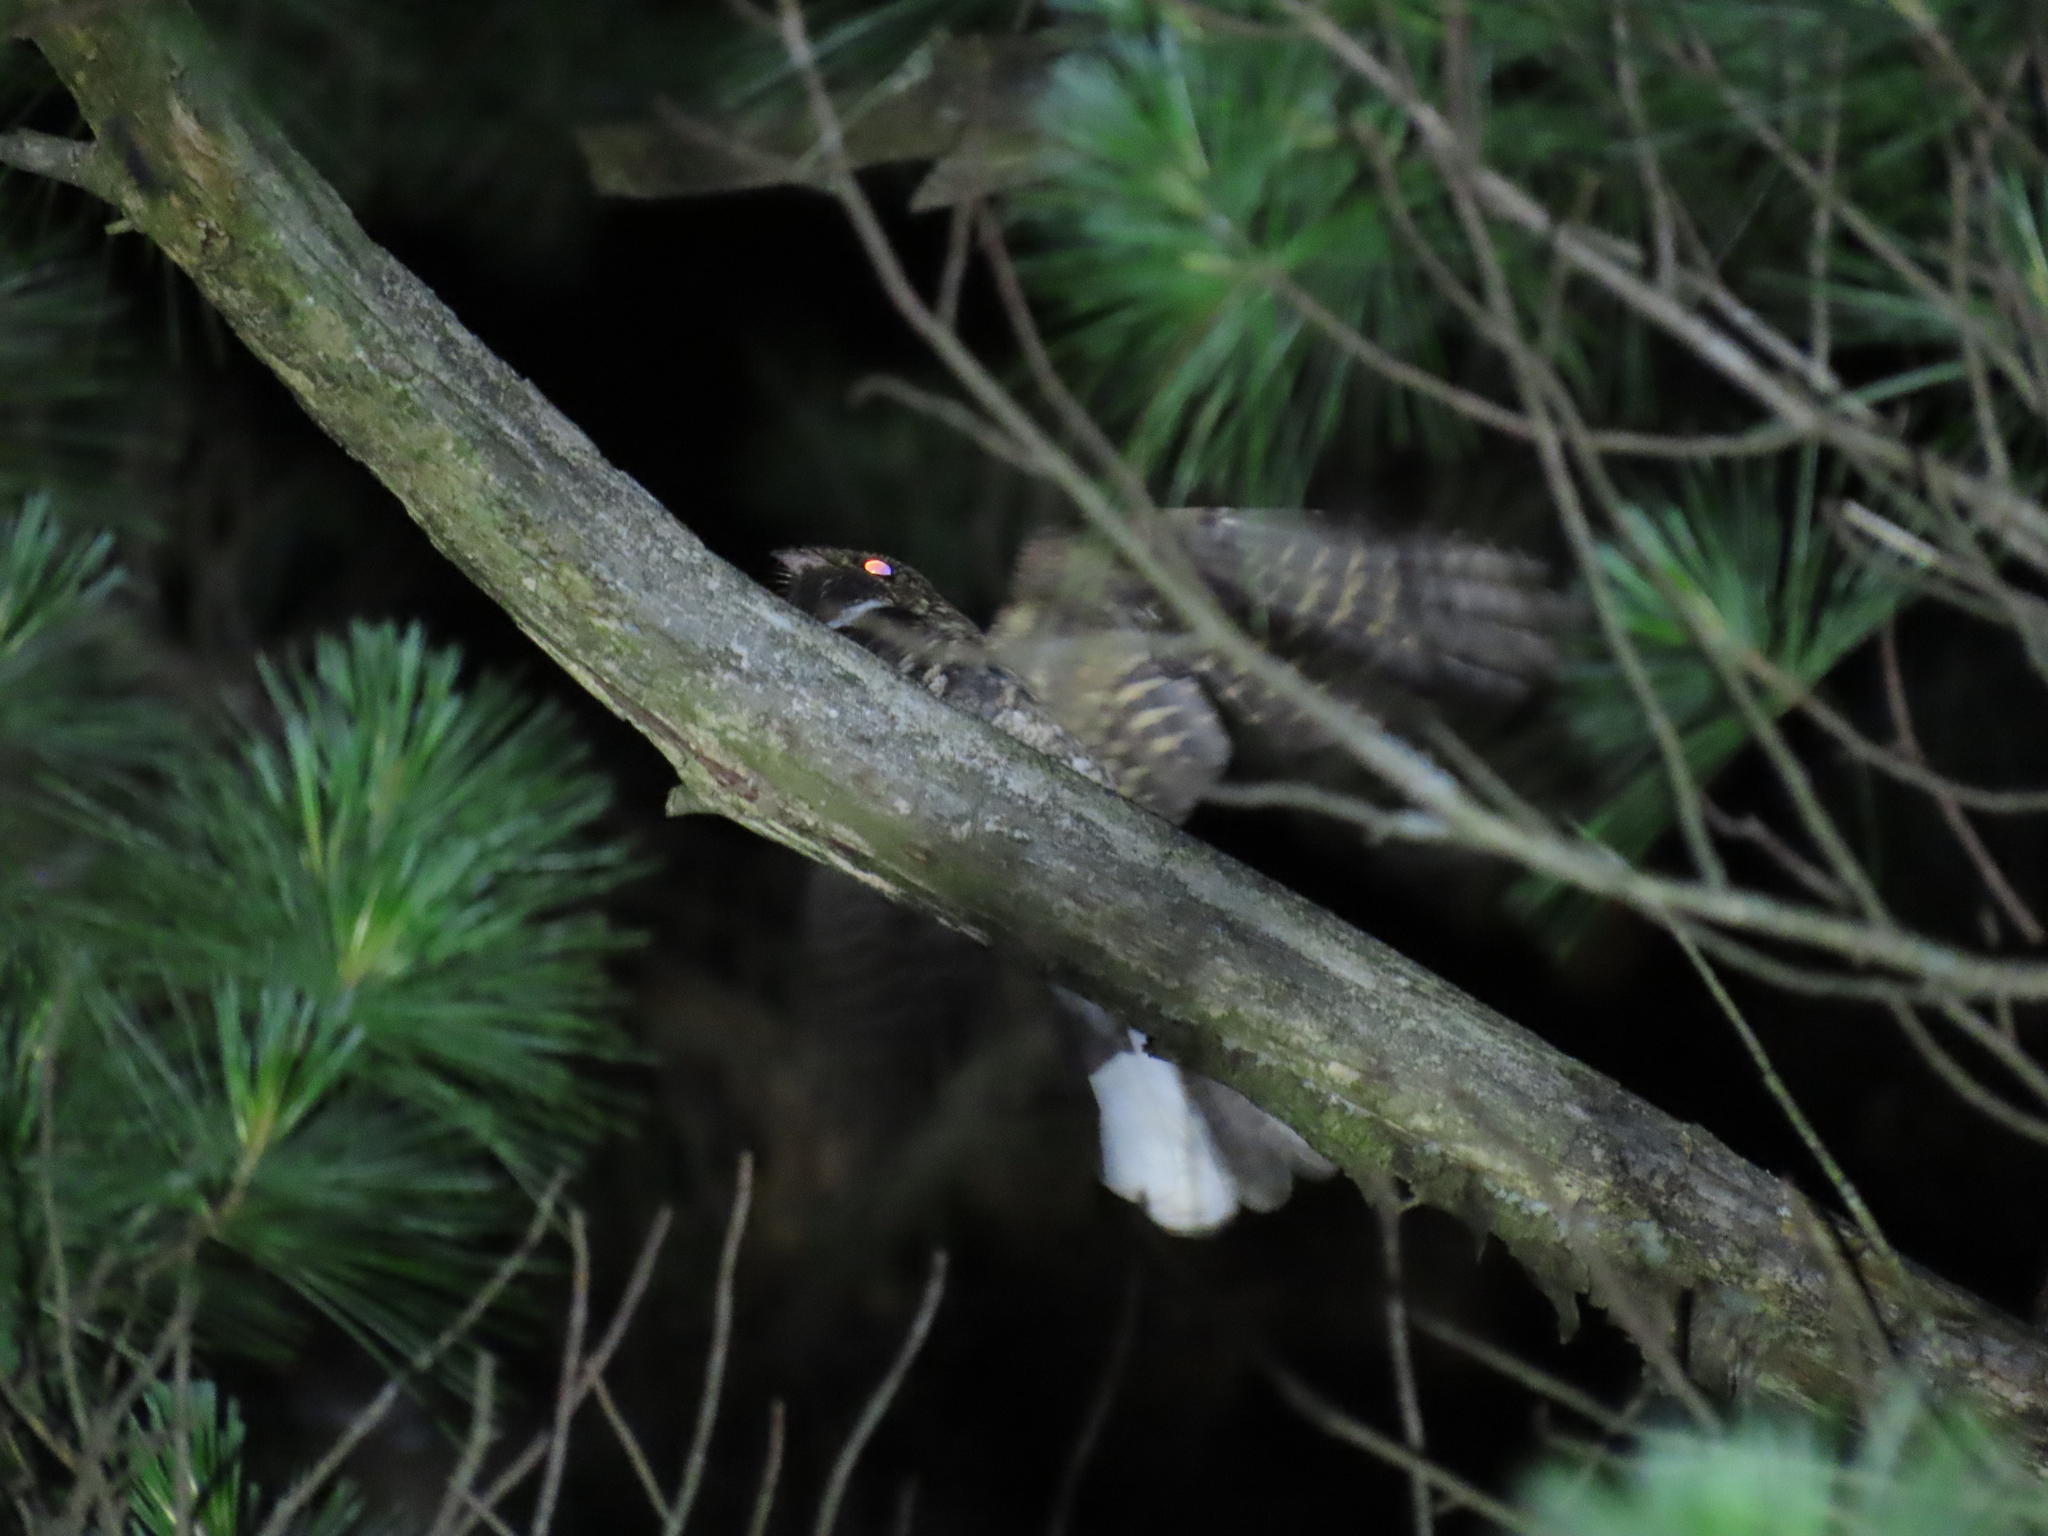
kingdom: Animalia
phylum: Chordata
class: Aves
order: Caprimulgiformes
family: Caprimulgidae
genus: Antrostomus
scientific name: Antrostomus vociferus
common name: Eastern whip-poor-will
